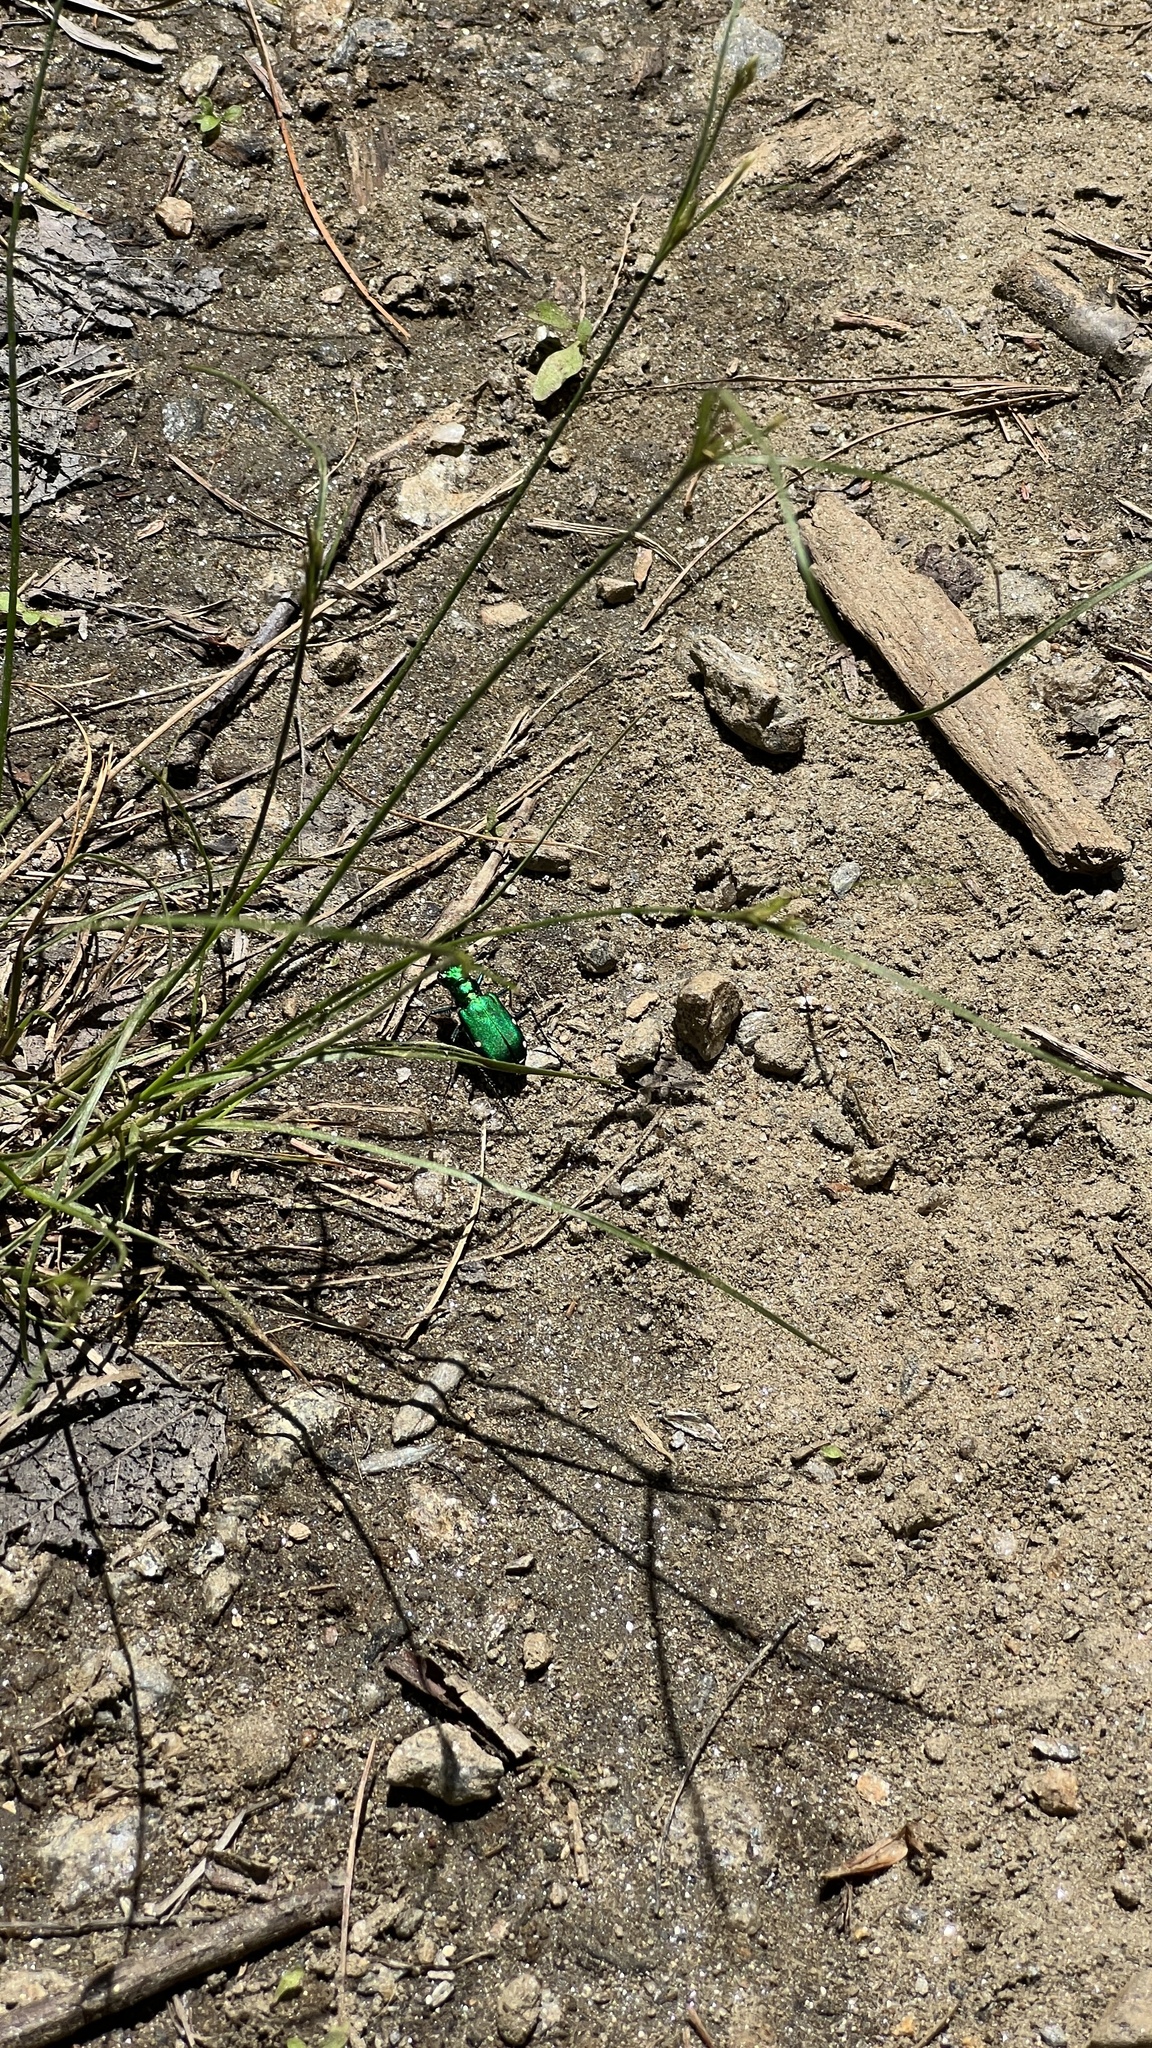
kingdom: Animalia
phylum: Arthropoda
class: Insecta
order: Coleoptera
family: Carabidae
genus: Cicindela
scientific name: Cicindela sexguttata
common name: Six-spotted tiger beetle
